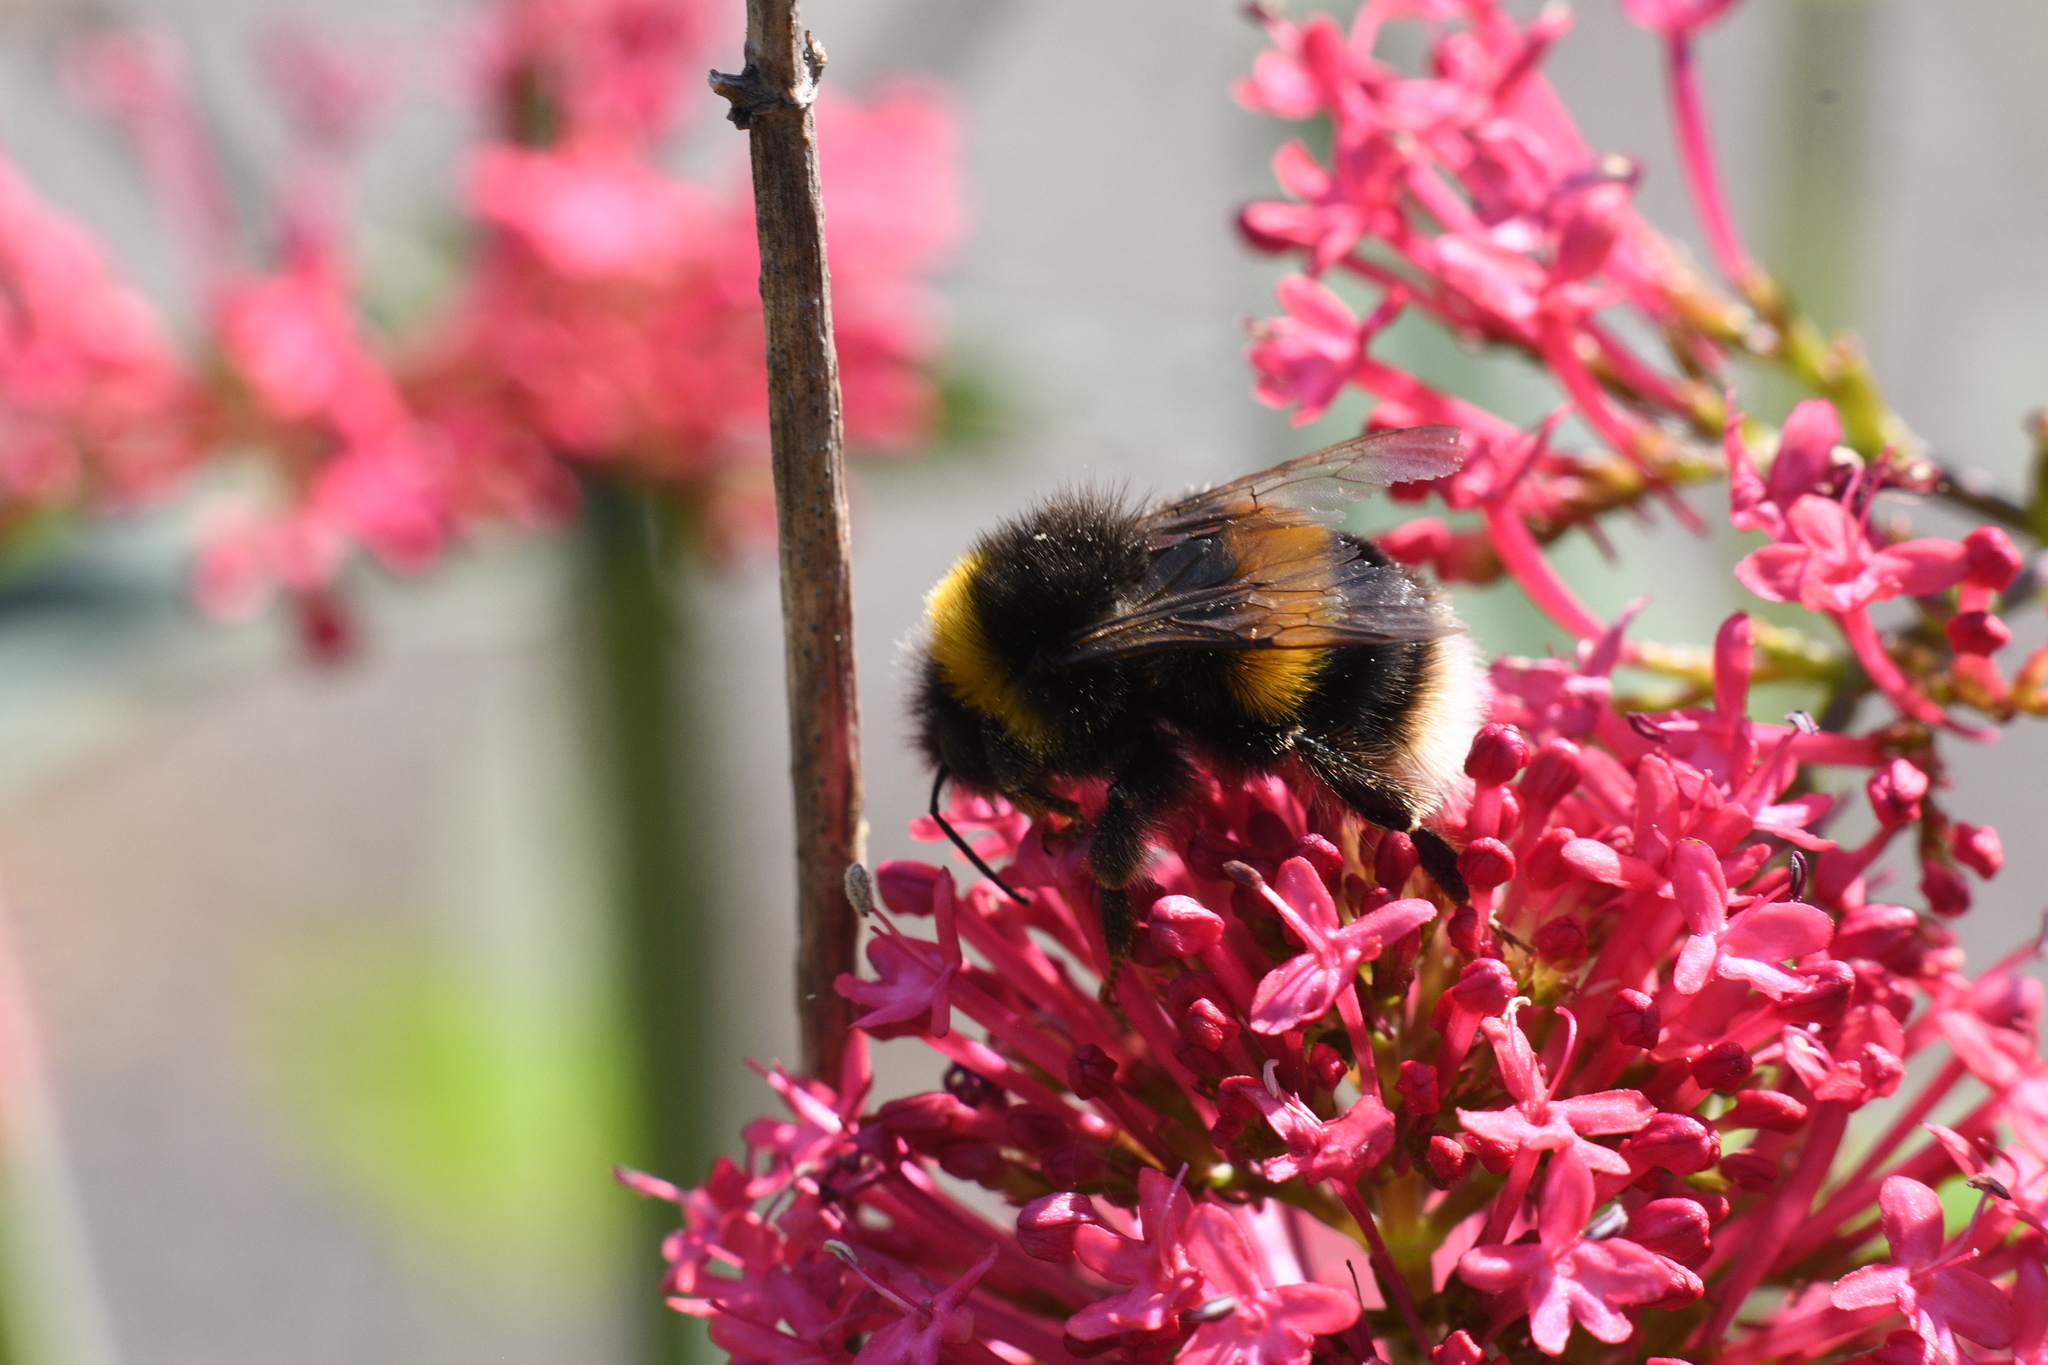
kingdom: Animalia
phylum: Arthropoda
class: Insecta
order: Hymenoptera
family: Apidae
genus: Bombus
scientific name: Bombus terrestris
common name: Buff-tailed bumblebee
